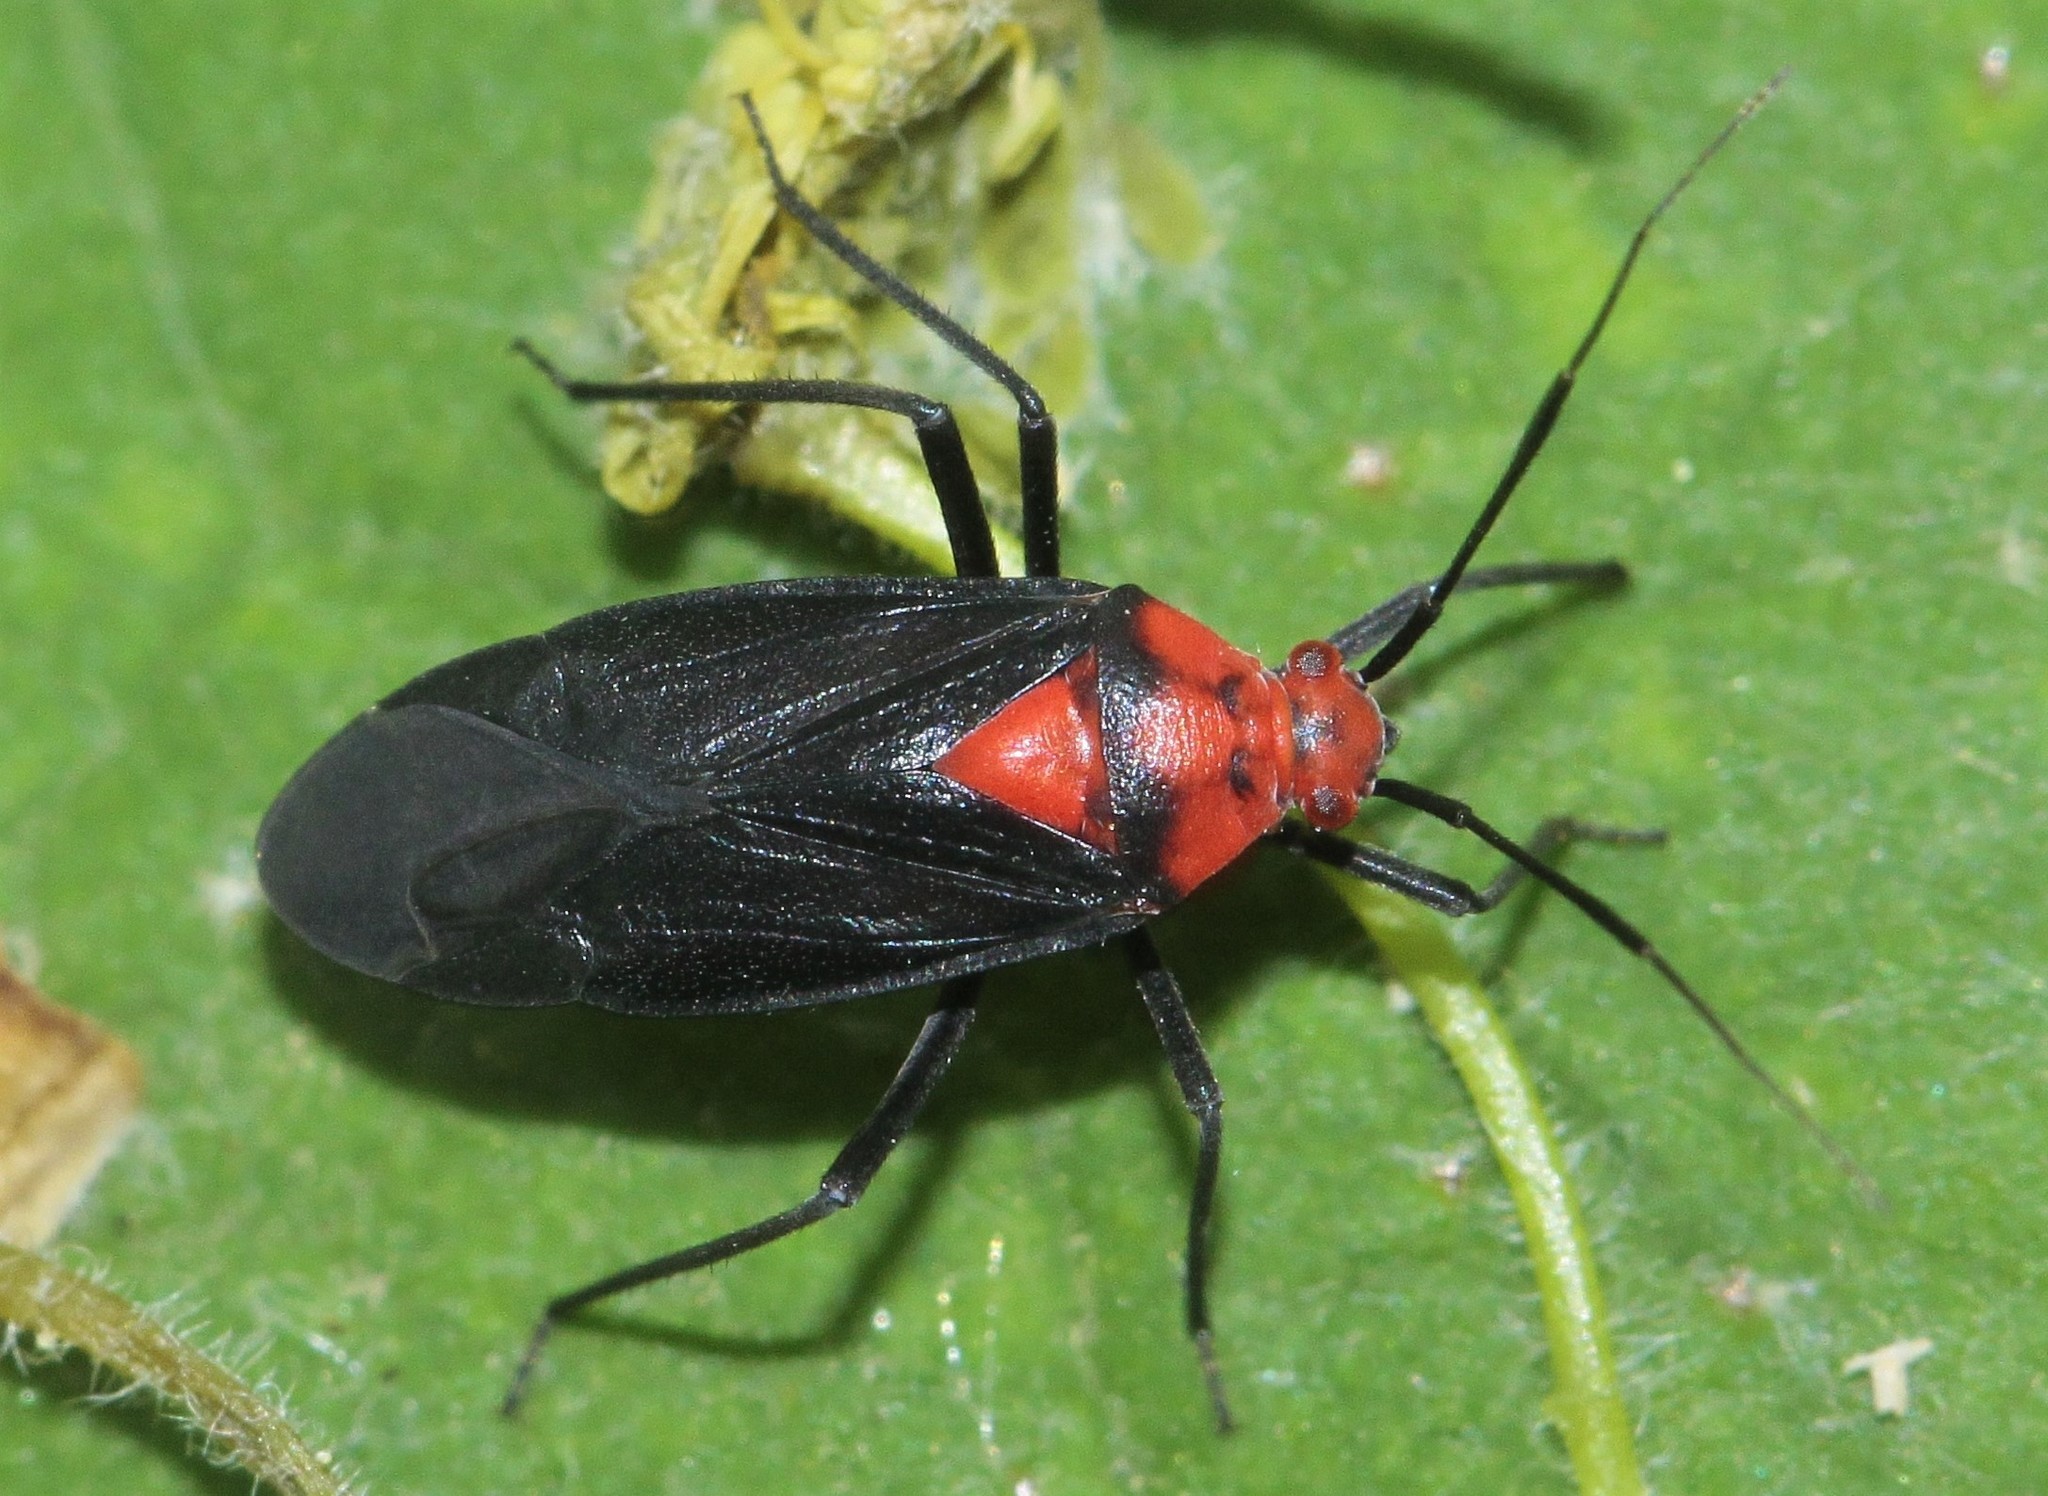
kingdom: Animalia
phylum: Arthropoda
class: Insecta
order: Hemiptera
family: Miridae
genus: Capsodes
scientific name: Capsodes bicolor
